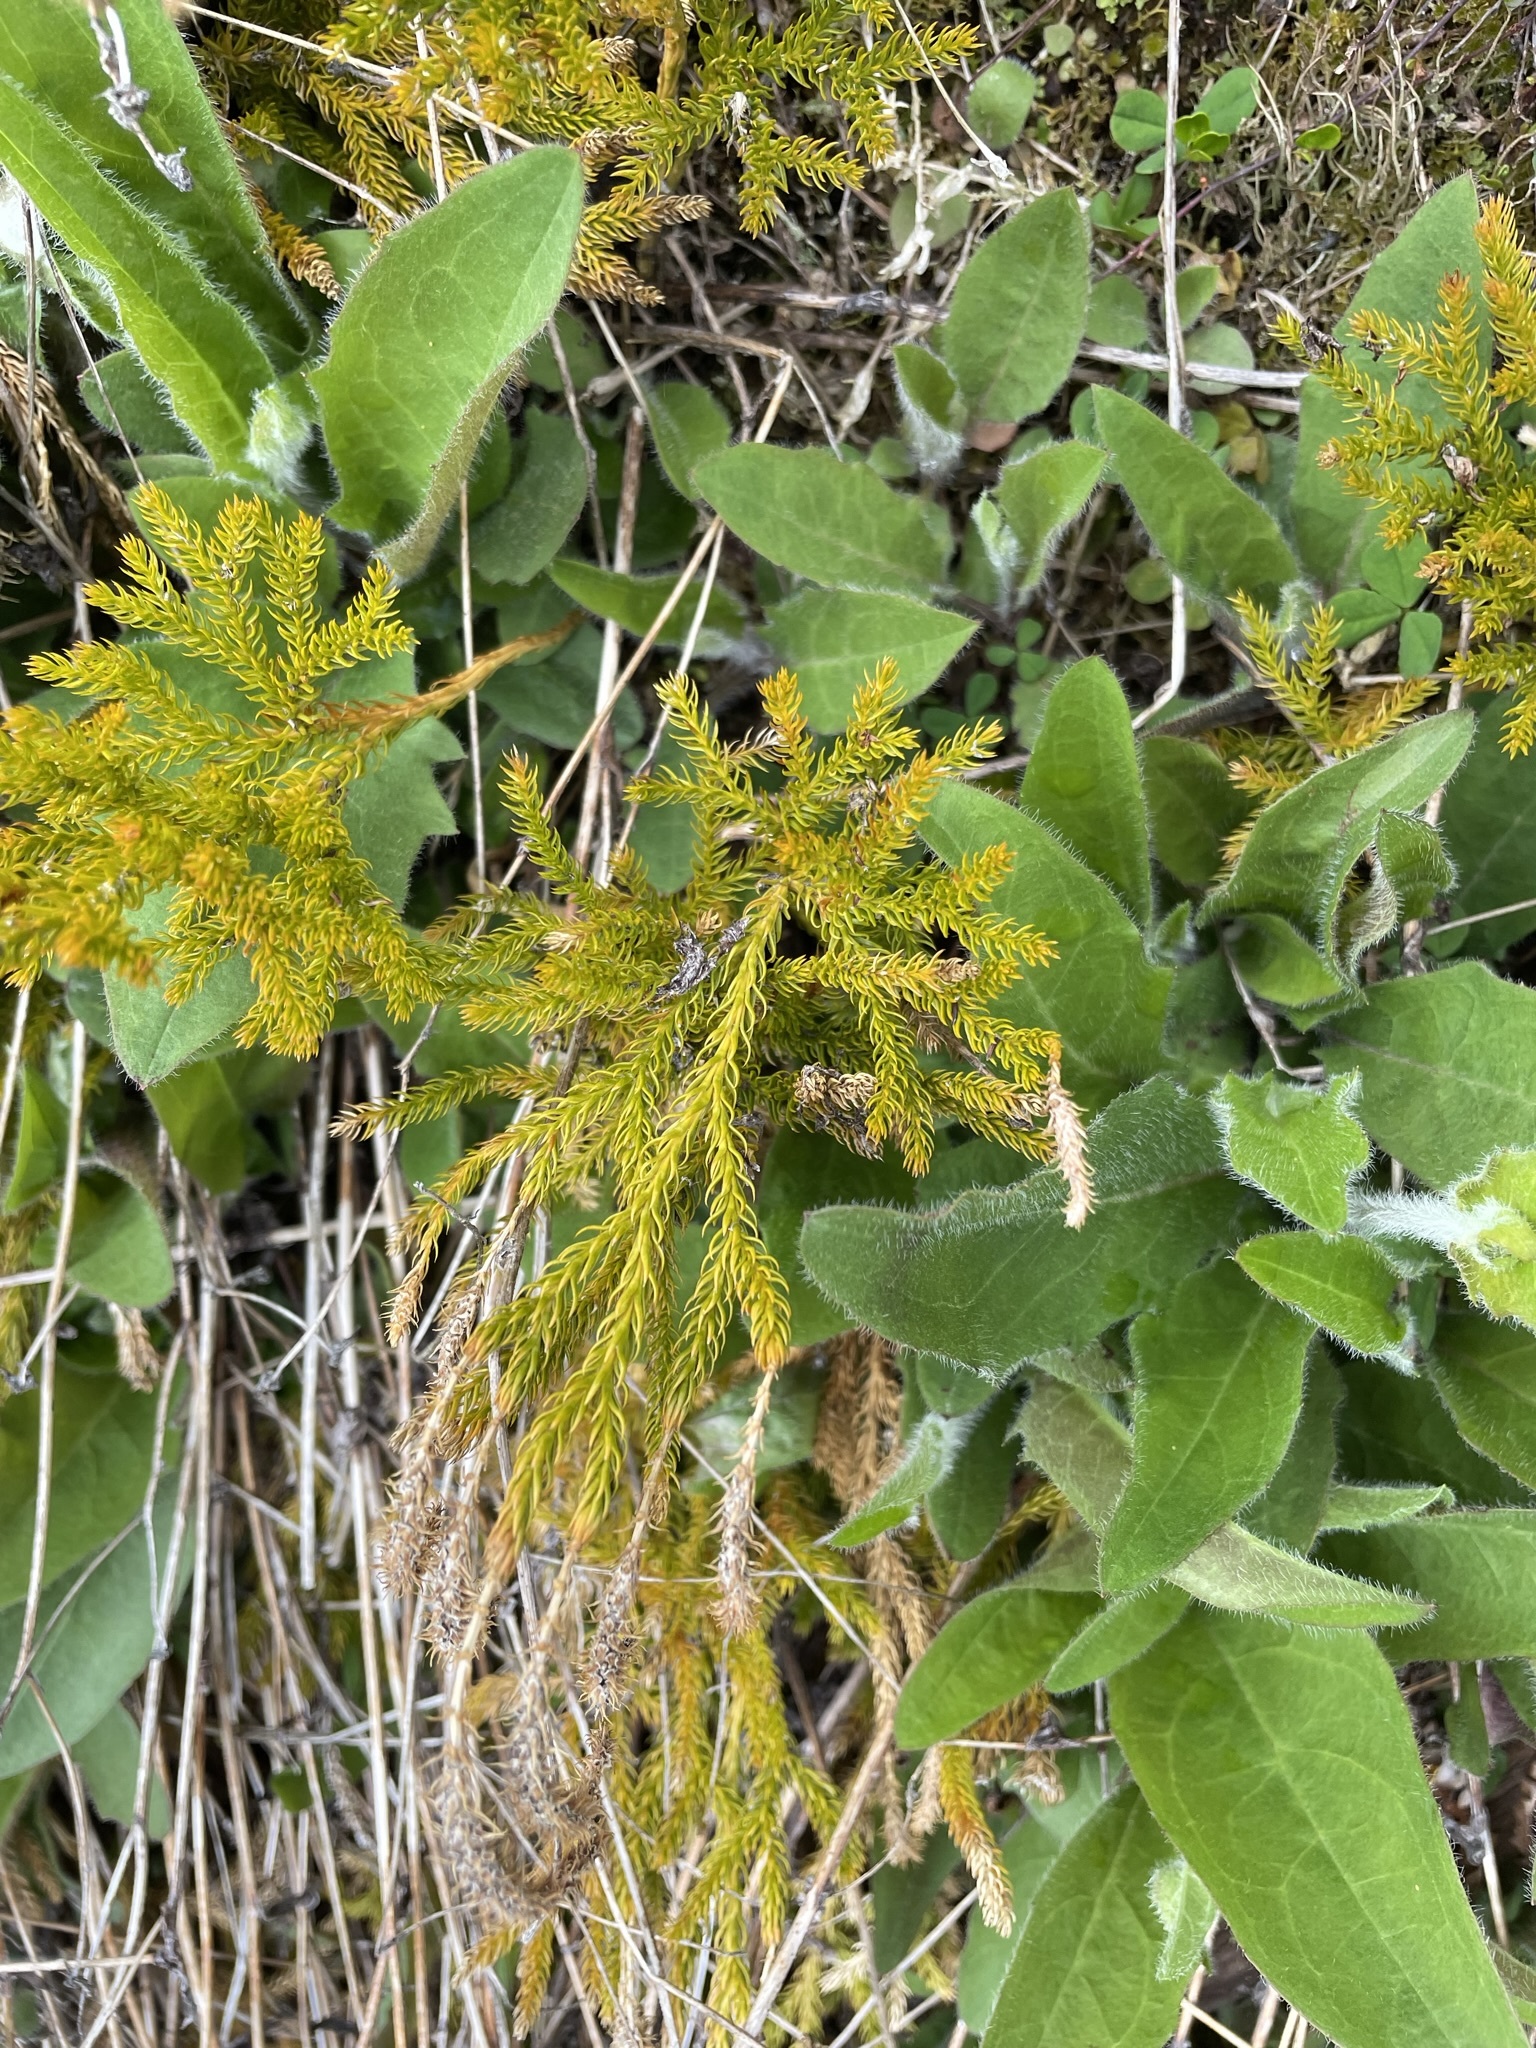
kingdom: Plantae
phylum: Tracheophyta
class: Lycopodiopsida
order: Lycopodiales
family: Lycopodiaceae
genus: Austrolycopodium
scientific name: Austrolycopodium fastigiatum
